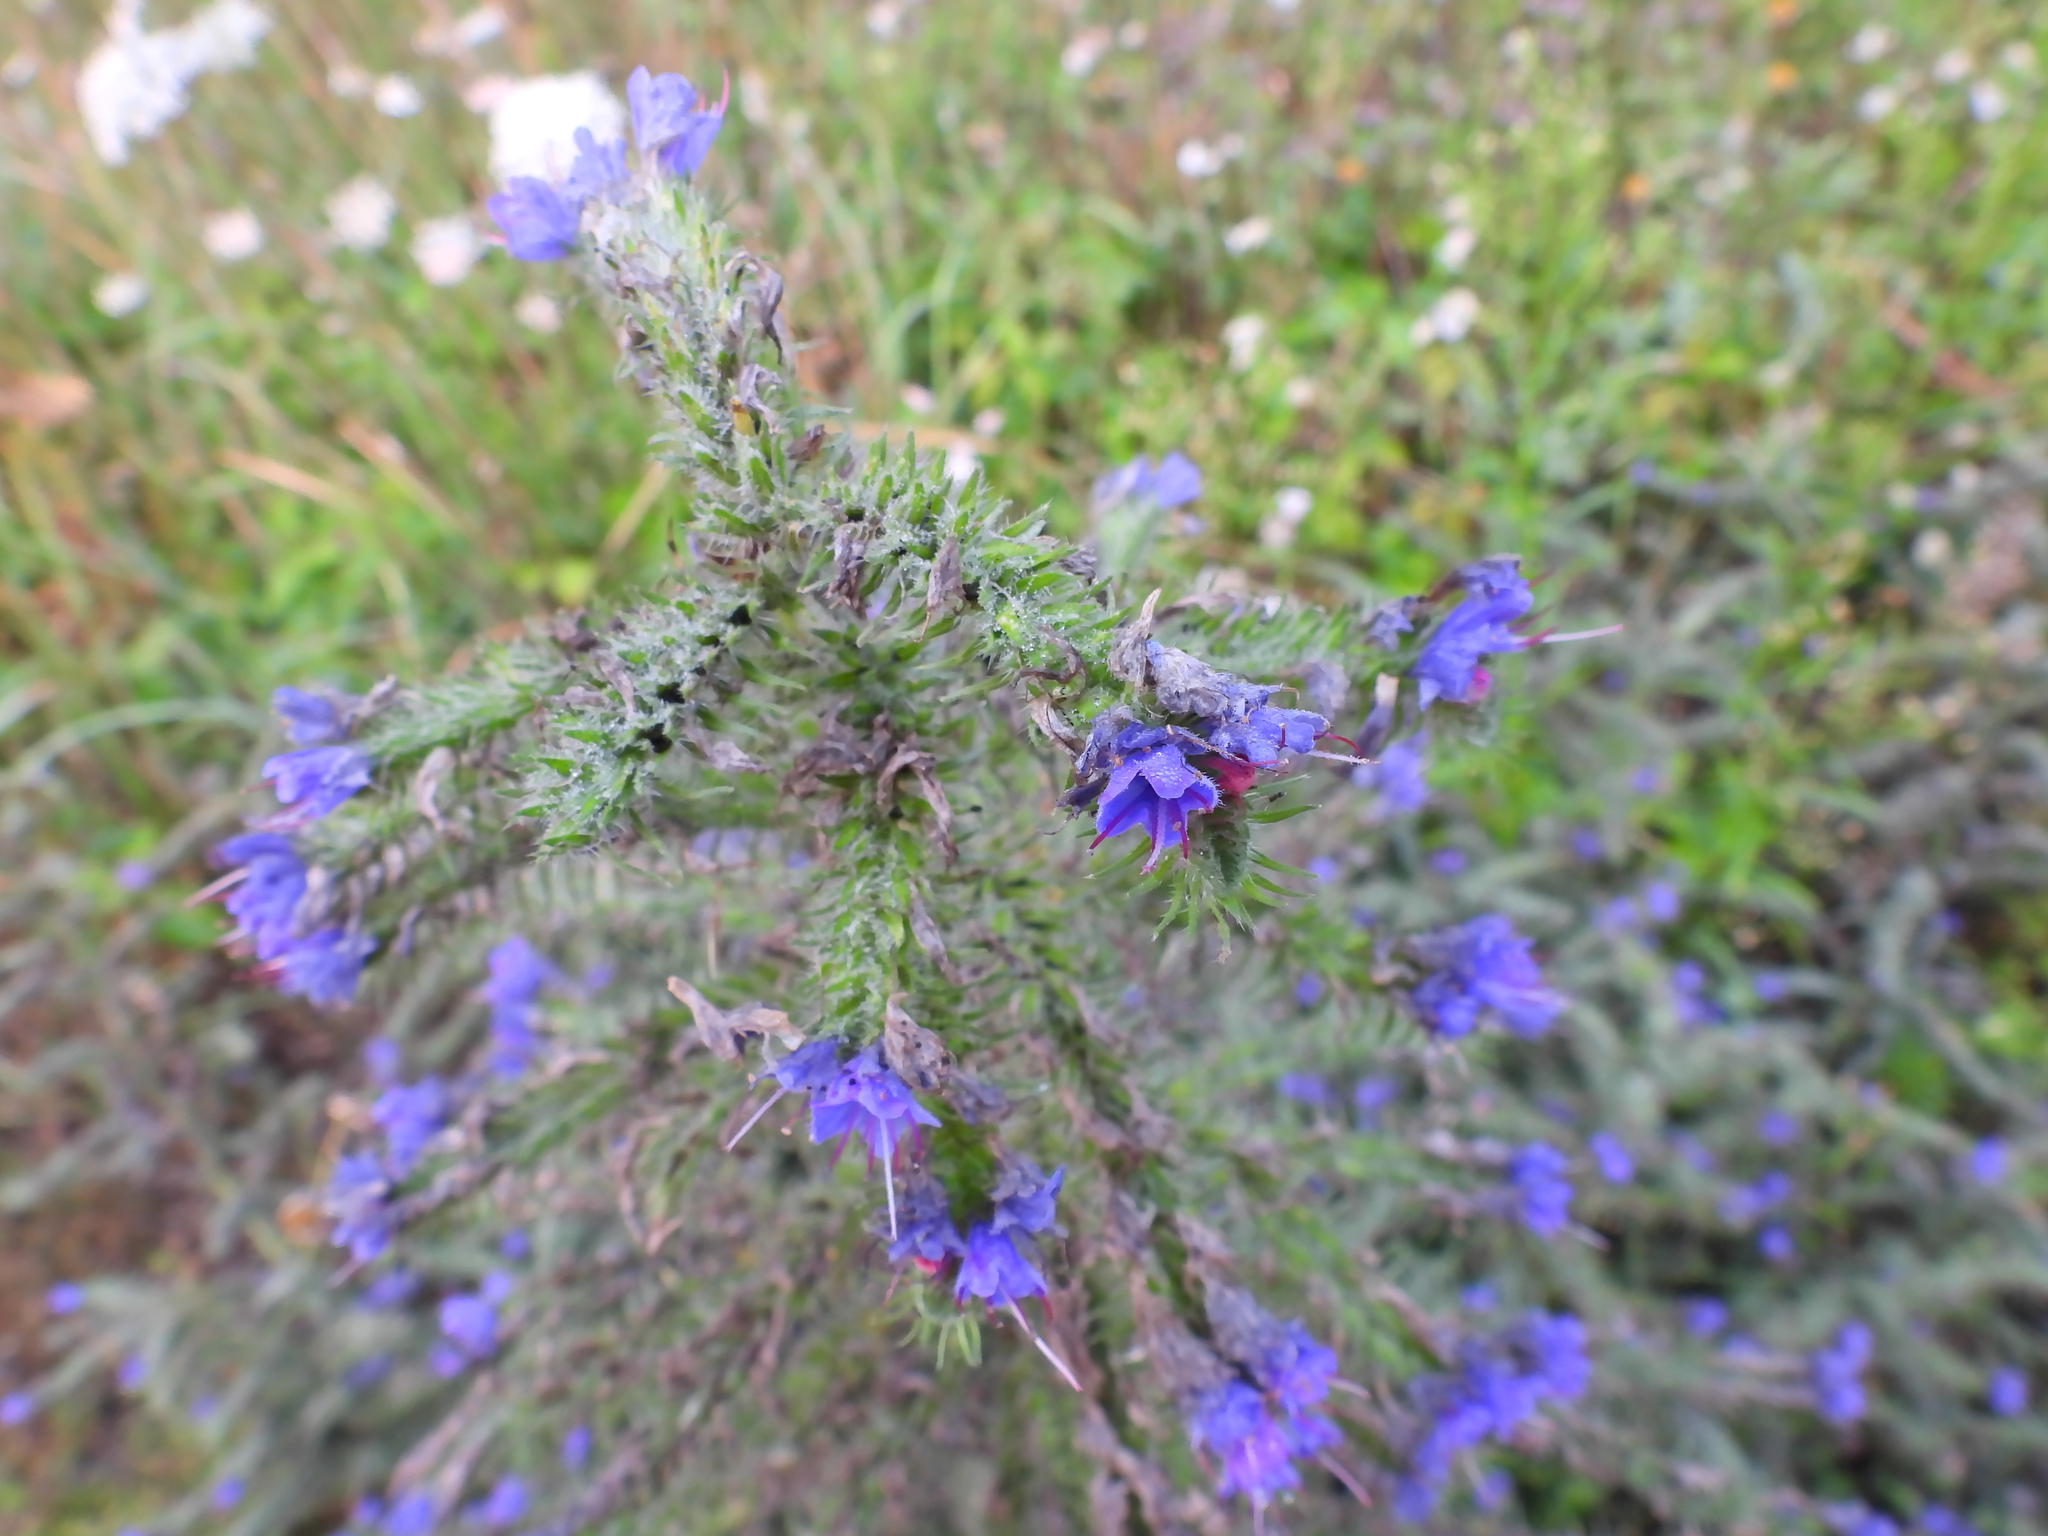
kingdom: Plantae
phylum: Tracheophyta
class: Magnoliopsida
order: Boraginales
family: Boraginaceae
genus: Echium
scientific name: Echium vulgare
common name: Common viper's bugloss
